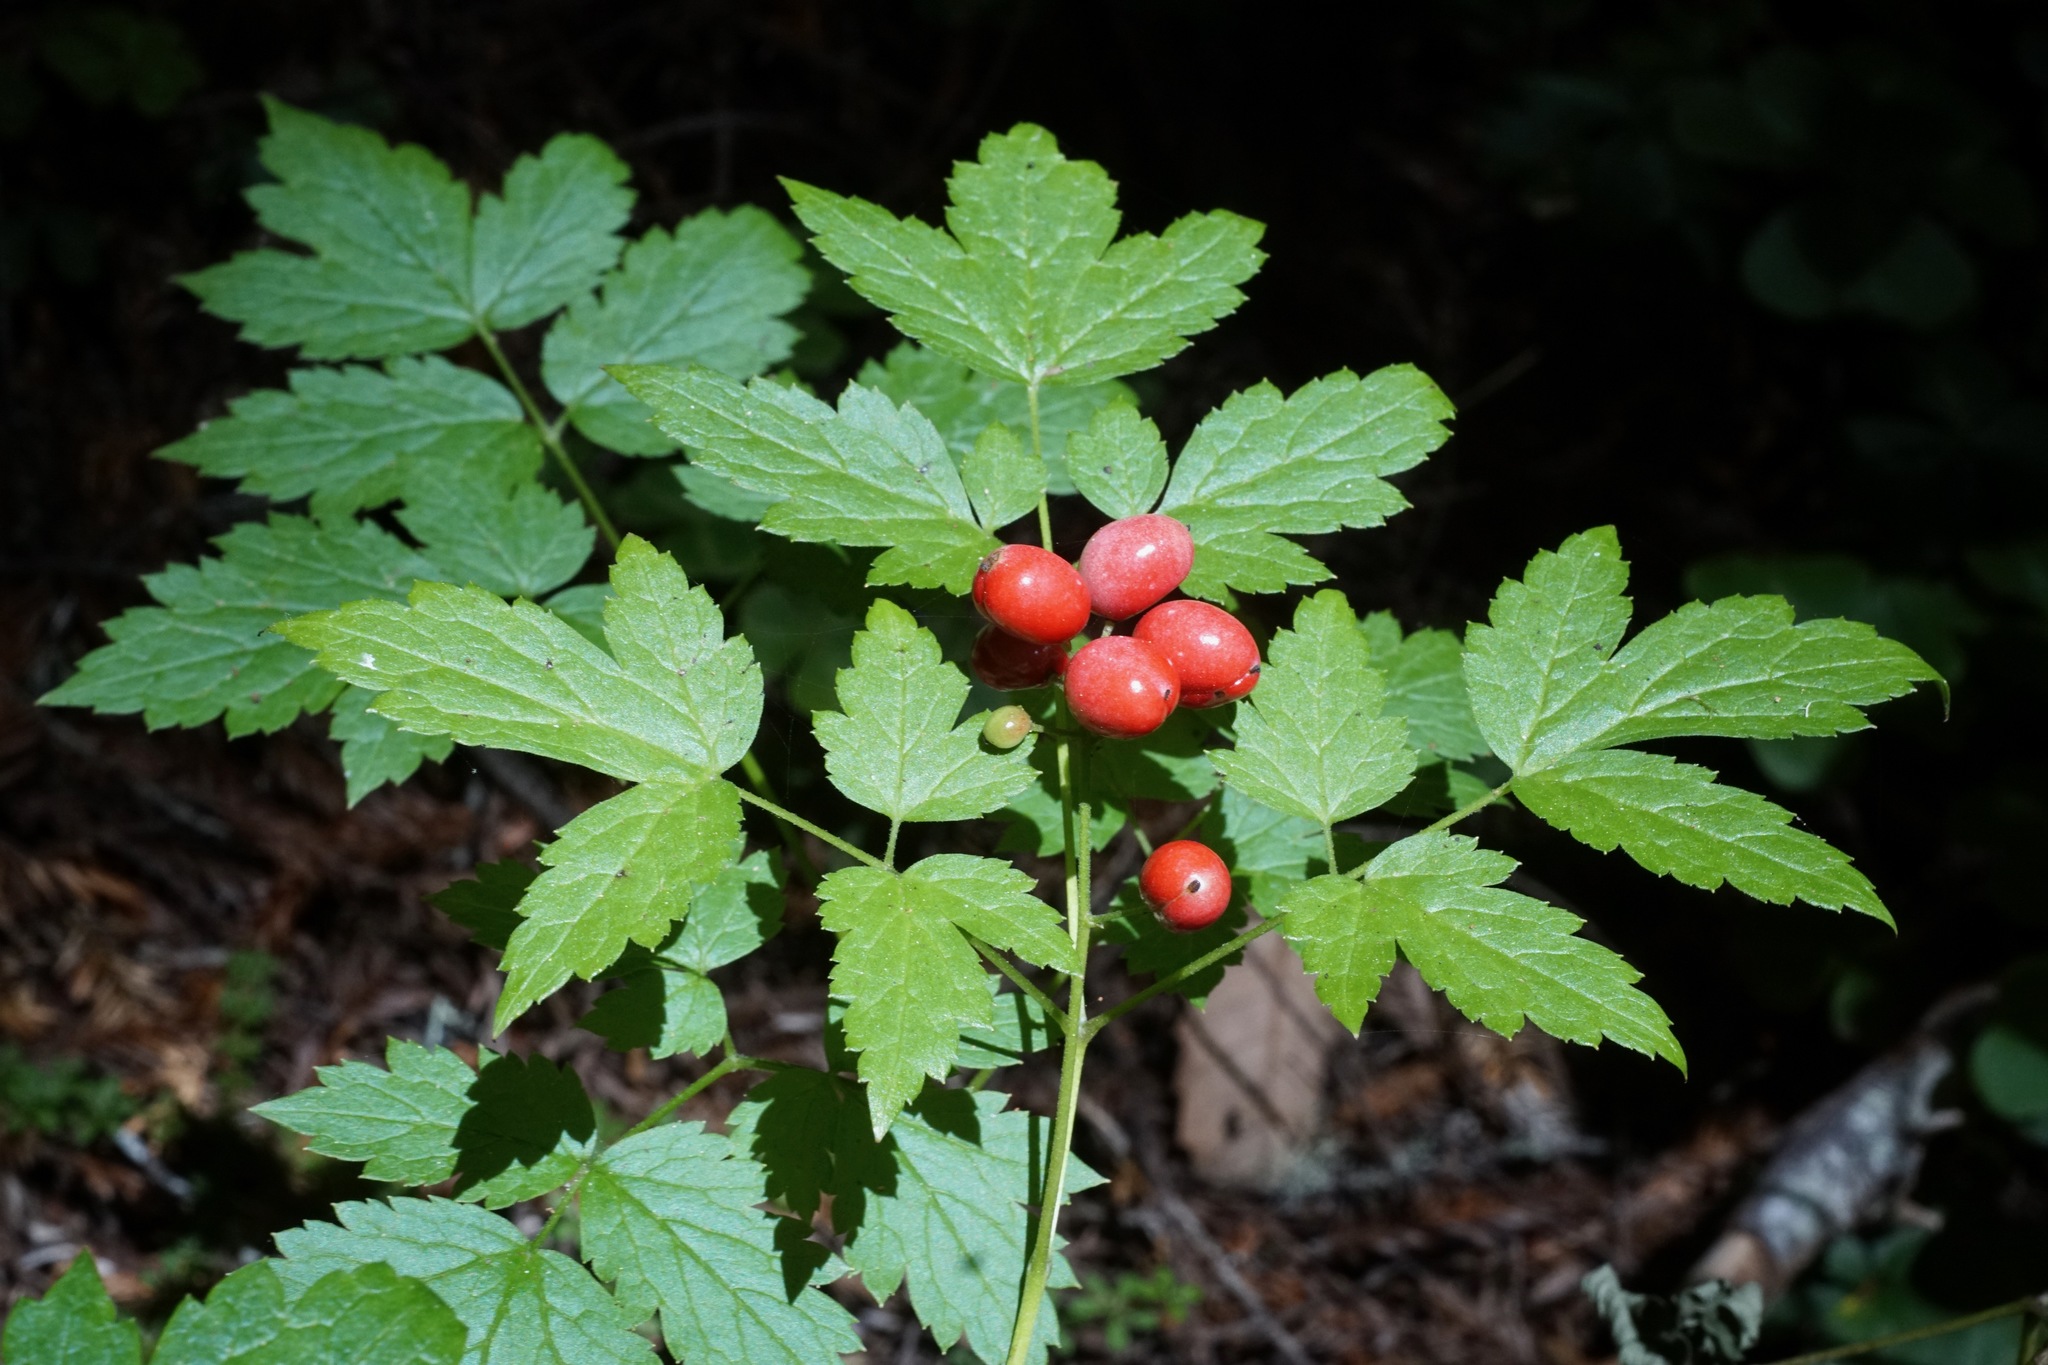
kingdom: Plantae
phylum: Tracheophyta
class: Magnoliopsida
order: Ranunculales
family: Ranunculaceae
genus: Actaea
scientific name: Actaea rubra
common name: Red baneberry
